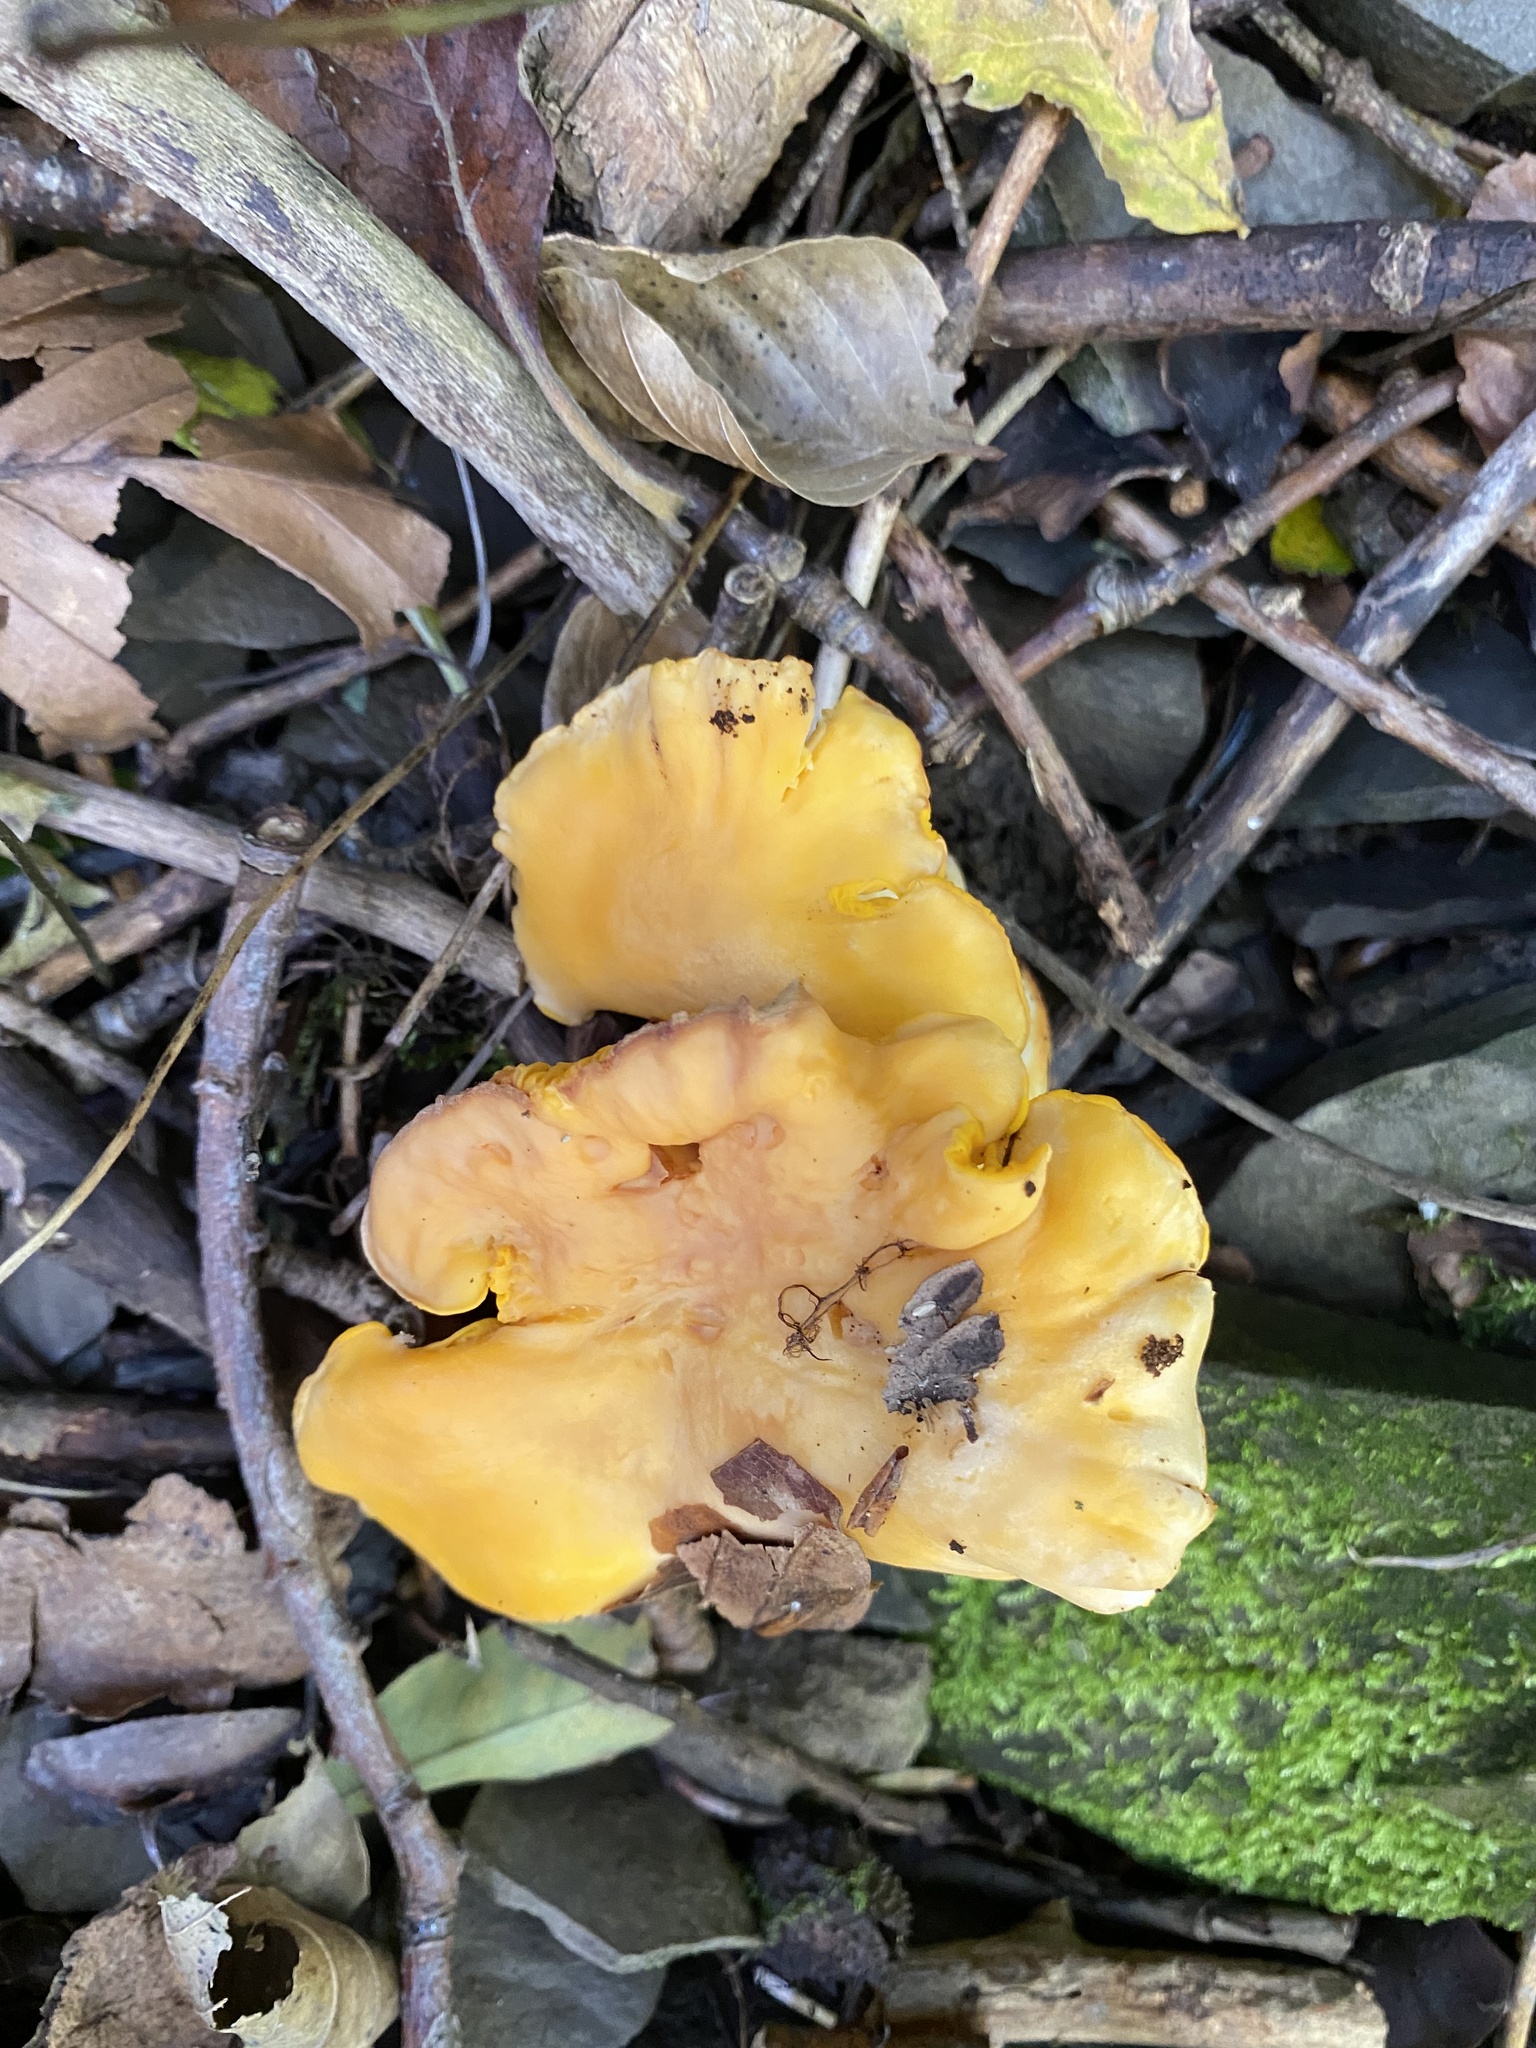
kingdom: Fungi
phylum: Basidiomycota
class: Agaricomycetes
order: Cantharellales
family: Hydnaceae
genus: Cantharellus
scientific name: Cantharellus cibarius
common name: Chanterelle
